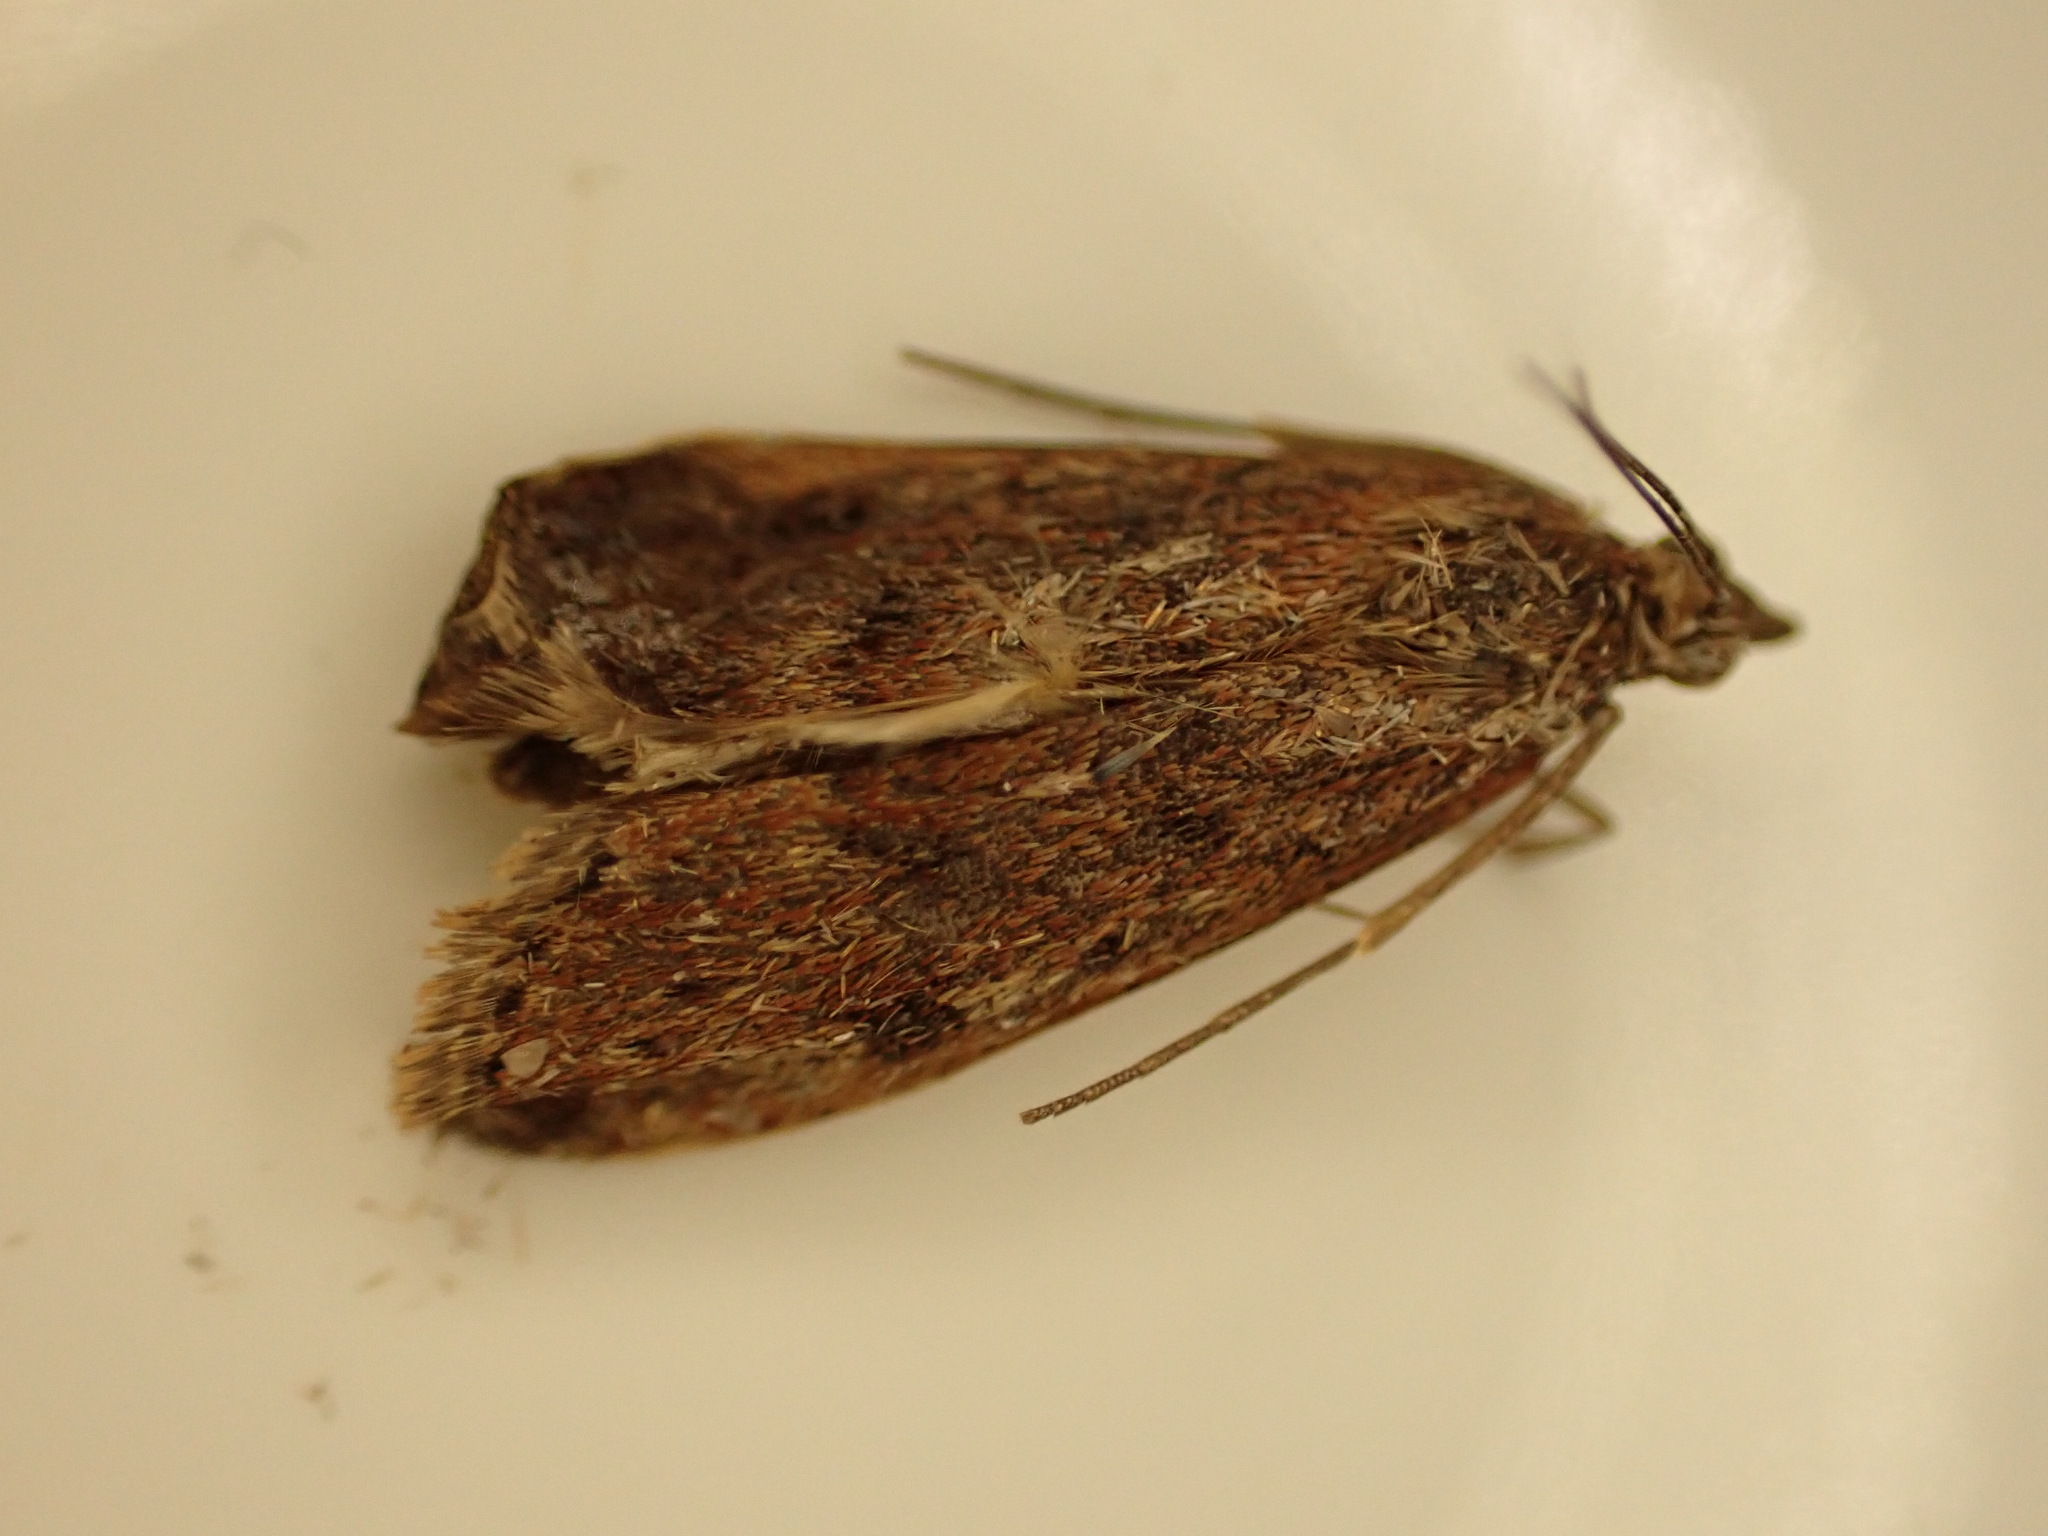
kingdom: Animalia
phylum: Arthropoda
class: Insecta
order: Lepidoptera
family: Crambidae
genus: Achyra
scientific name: Achyra affinitalis
